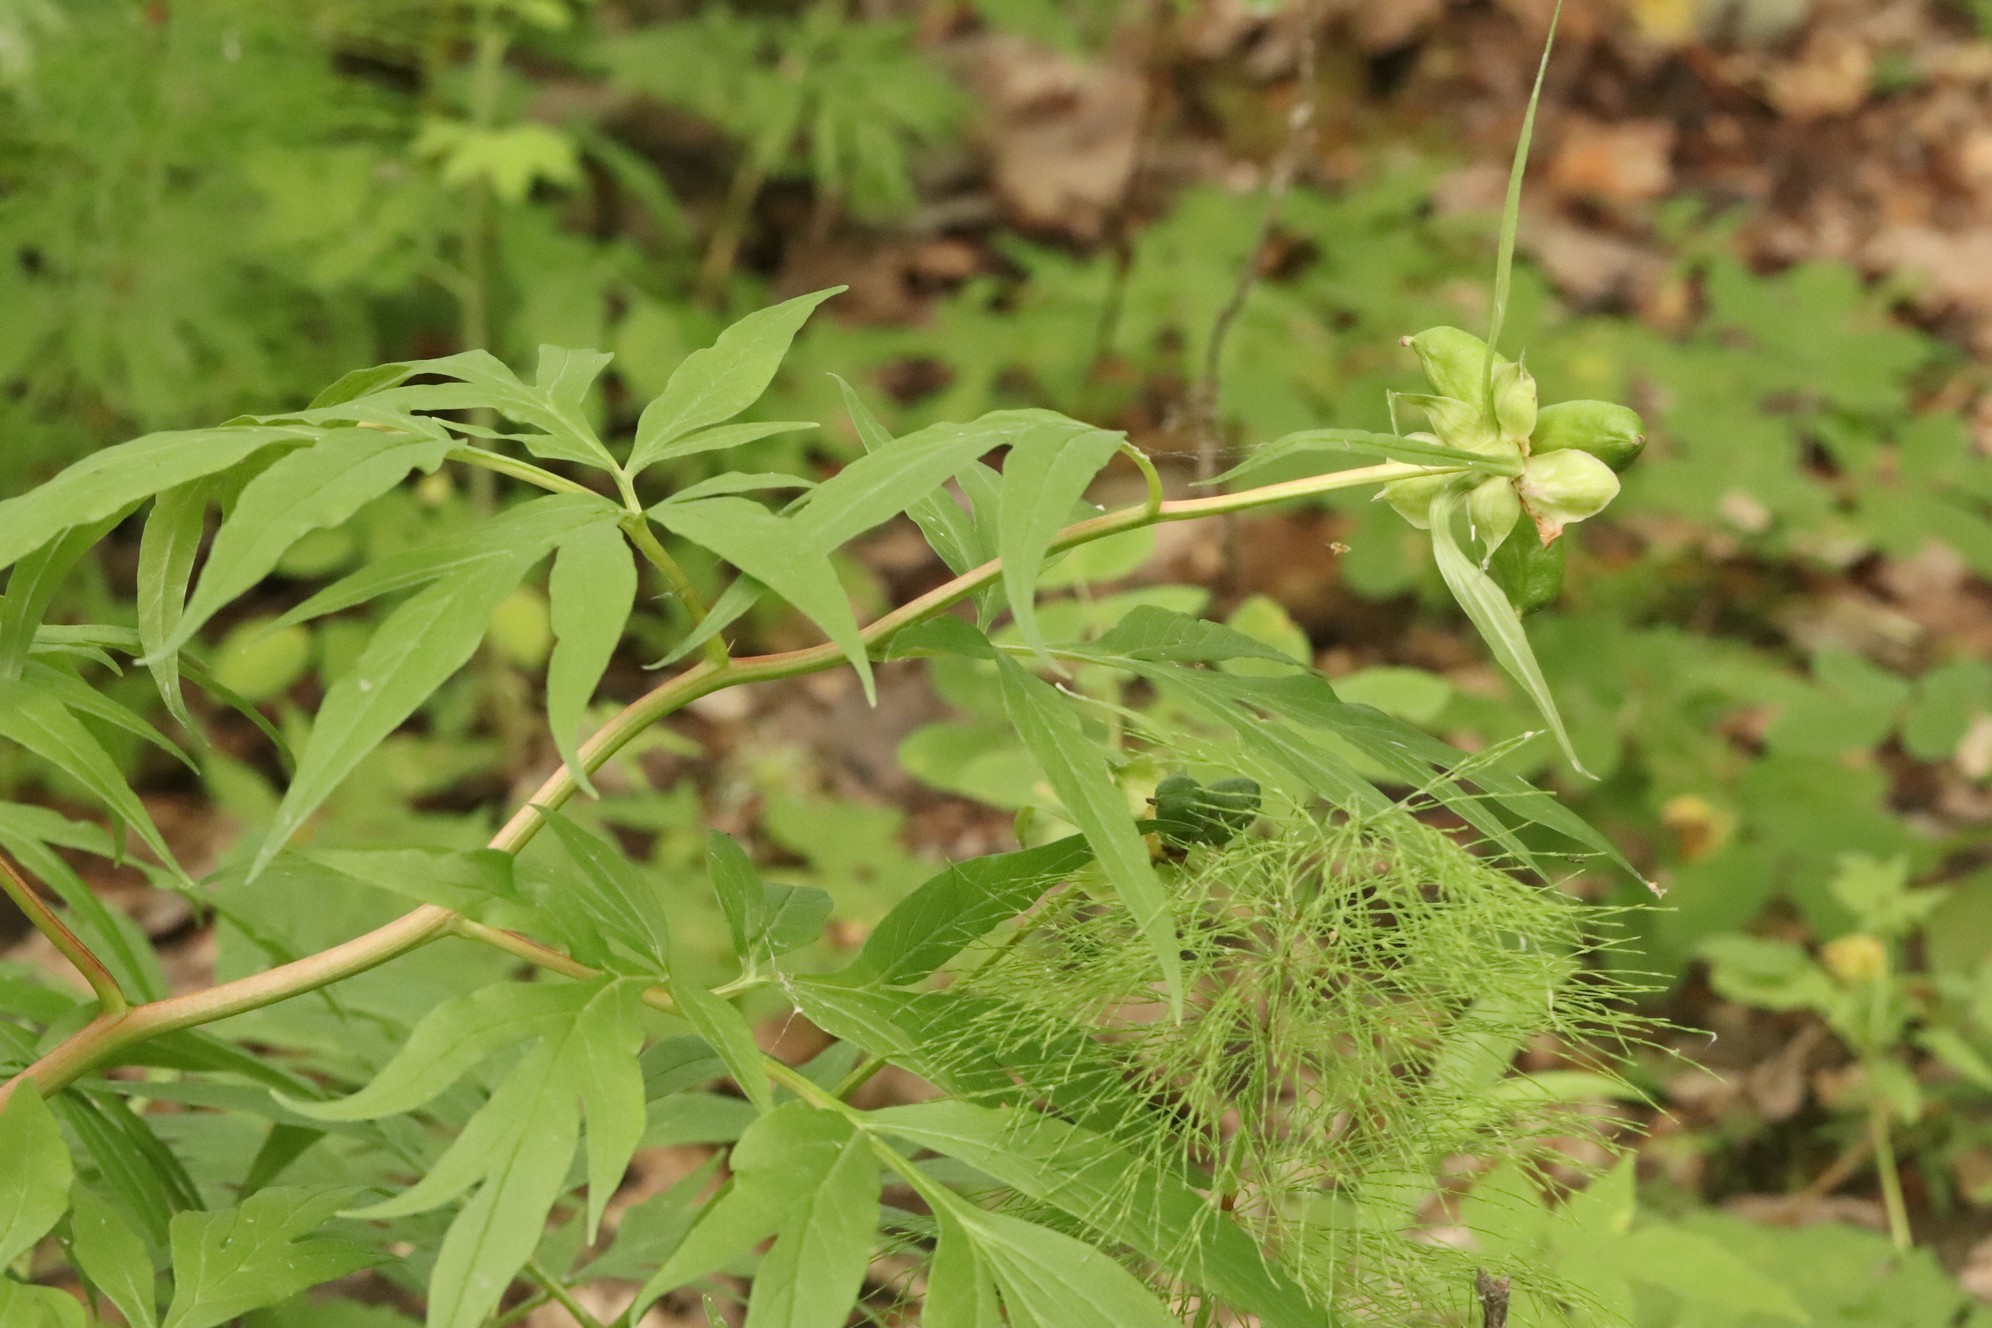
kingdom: Plantae
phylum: Tracheophyta
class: Magnoliopsida
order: Saxifragales
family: Paeoniaceae
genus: Paeonia
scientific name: Paeonia anomala
